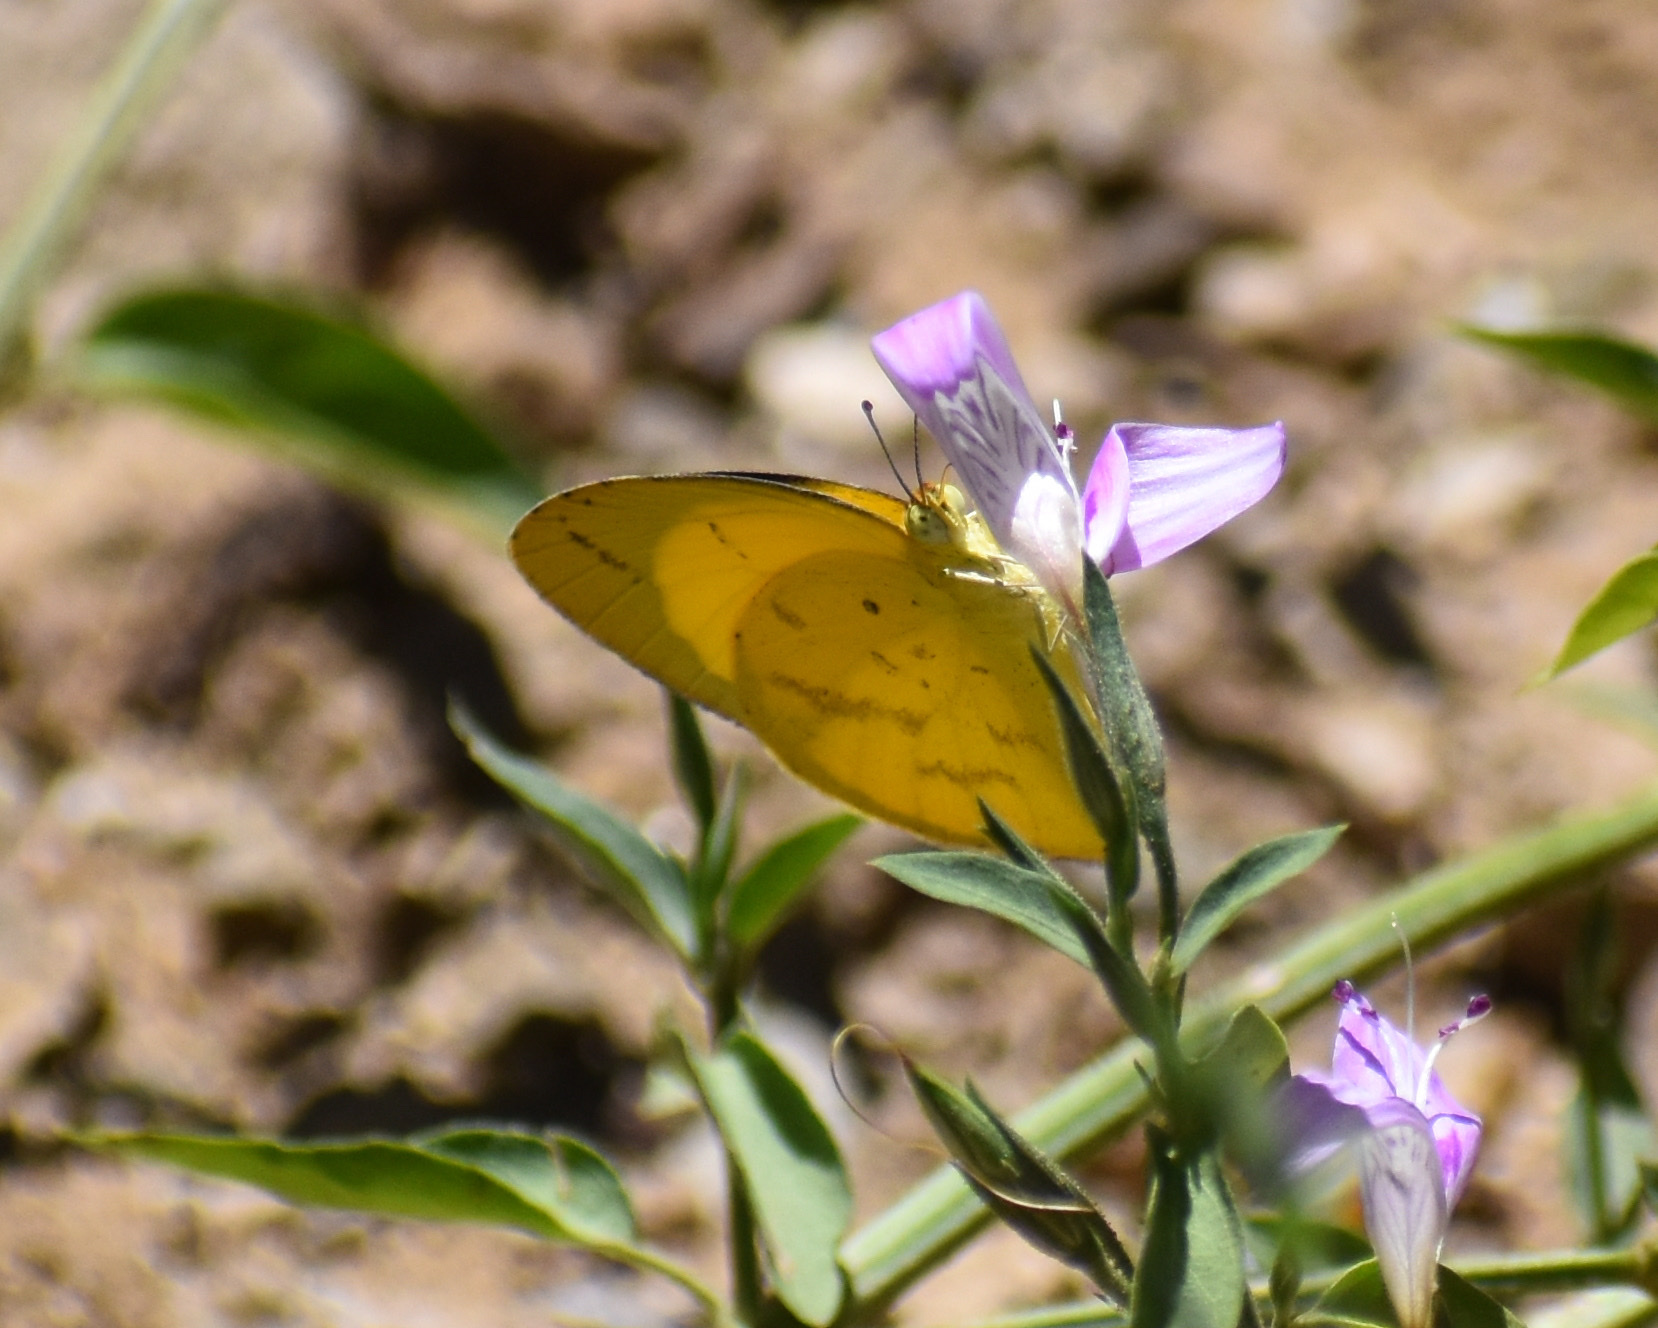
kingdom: Animalia
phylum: Arthropoda
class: Insecta
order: Lepidoptera
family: Pieridae
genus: Eurema
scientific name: Eurema brigitta
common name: Small grass yellow
